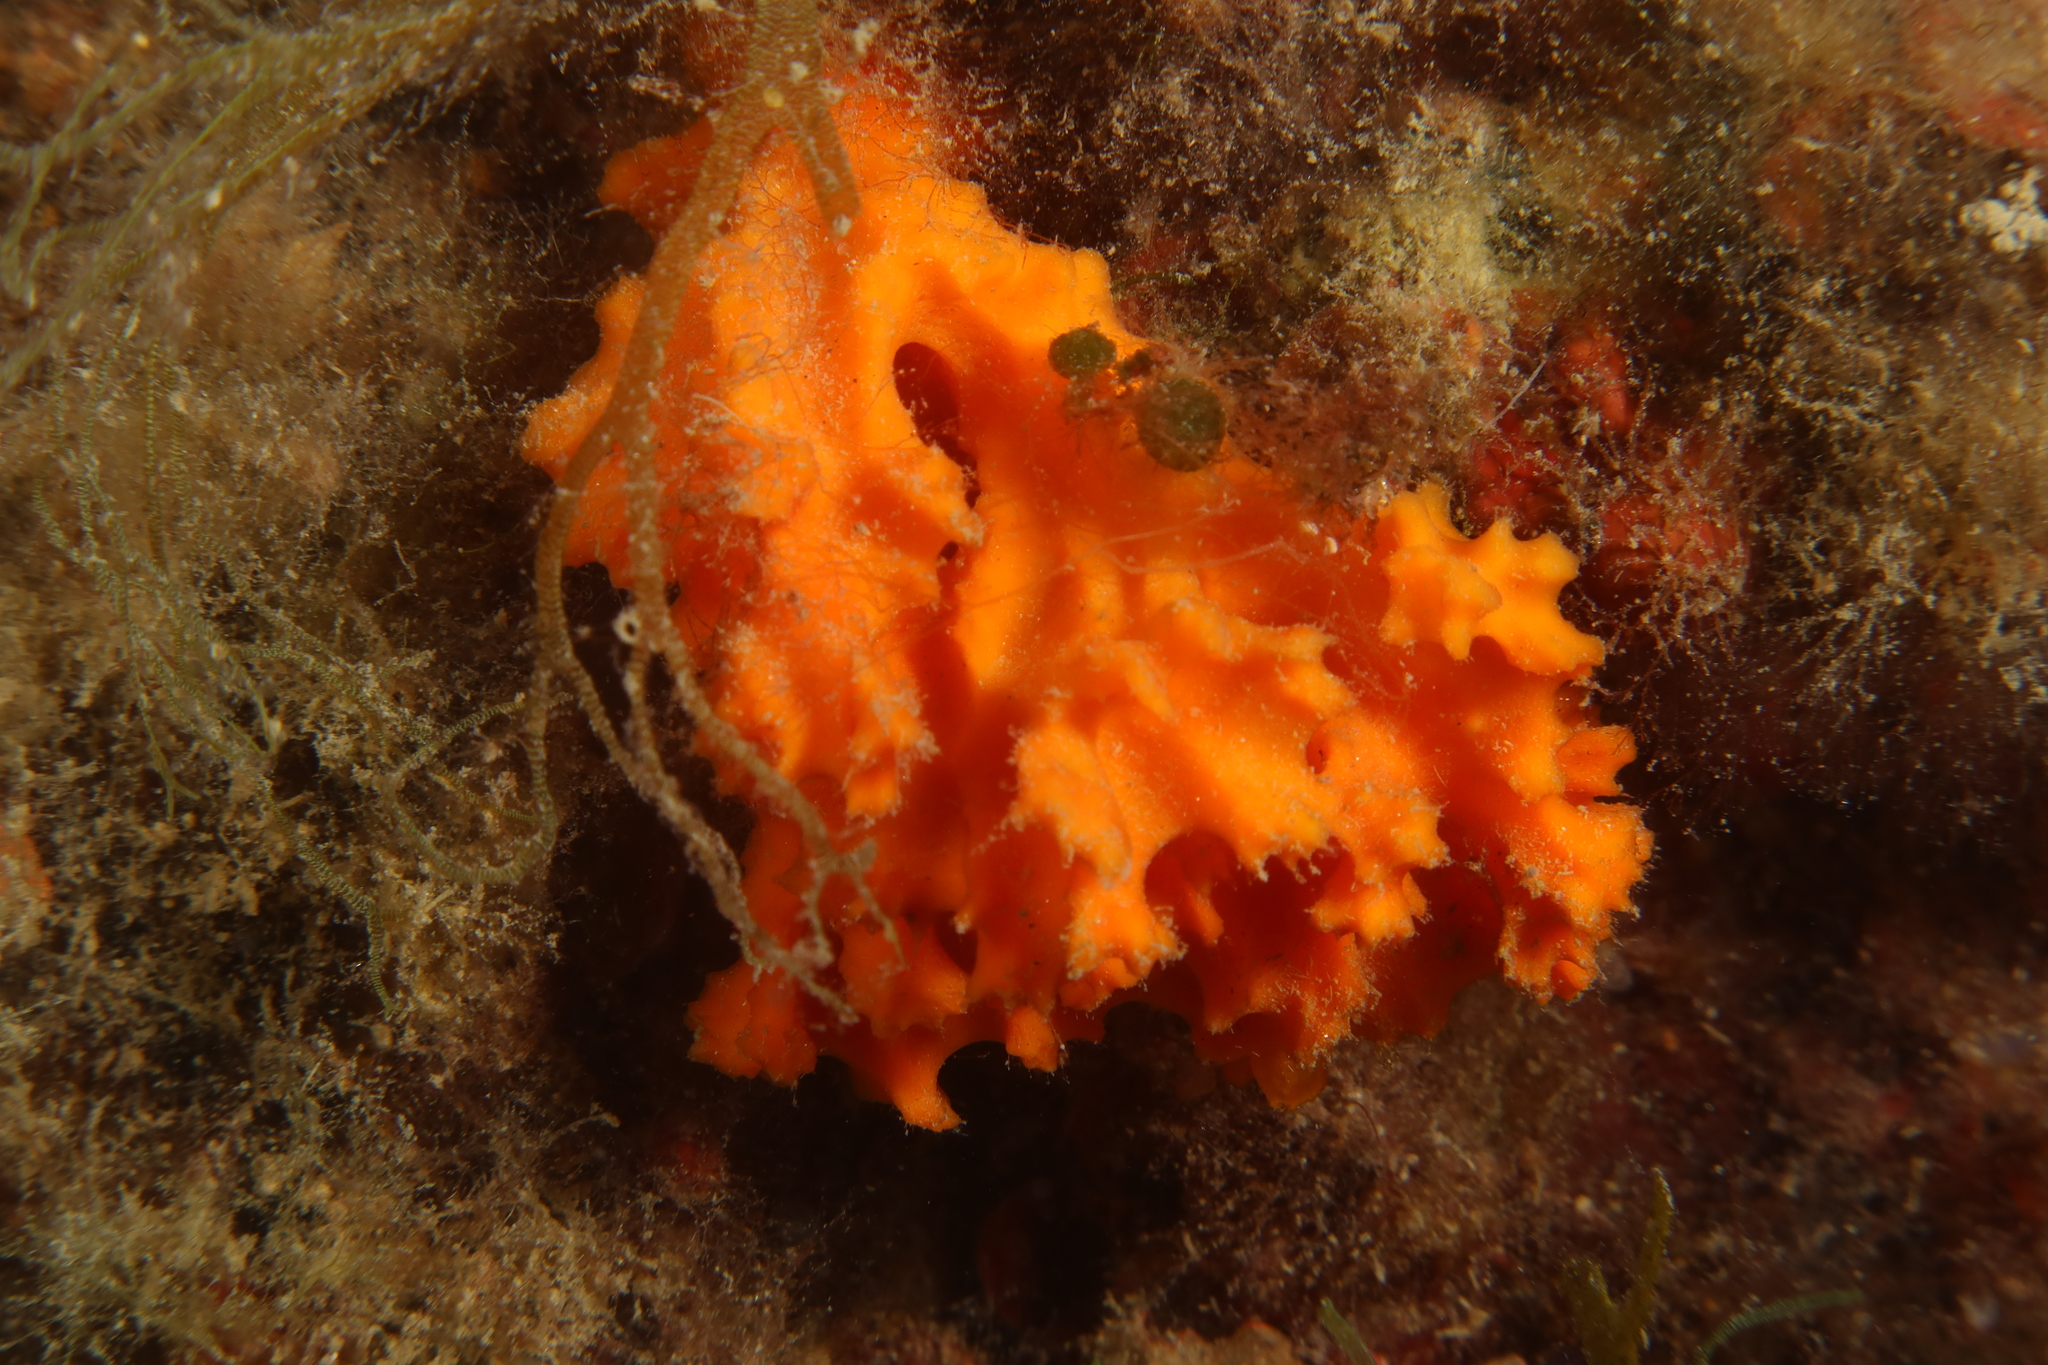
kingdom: Animalia
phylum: Porifera
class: Demospongiae
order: Bubarida
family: Dictyonellidae
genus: Acanthella
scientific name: Acanthella acuta
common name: Cactus sponge
